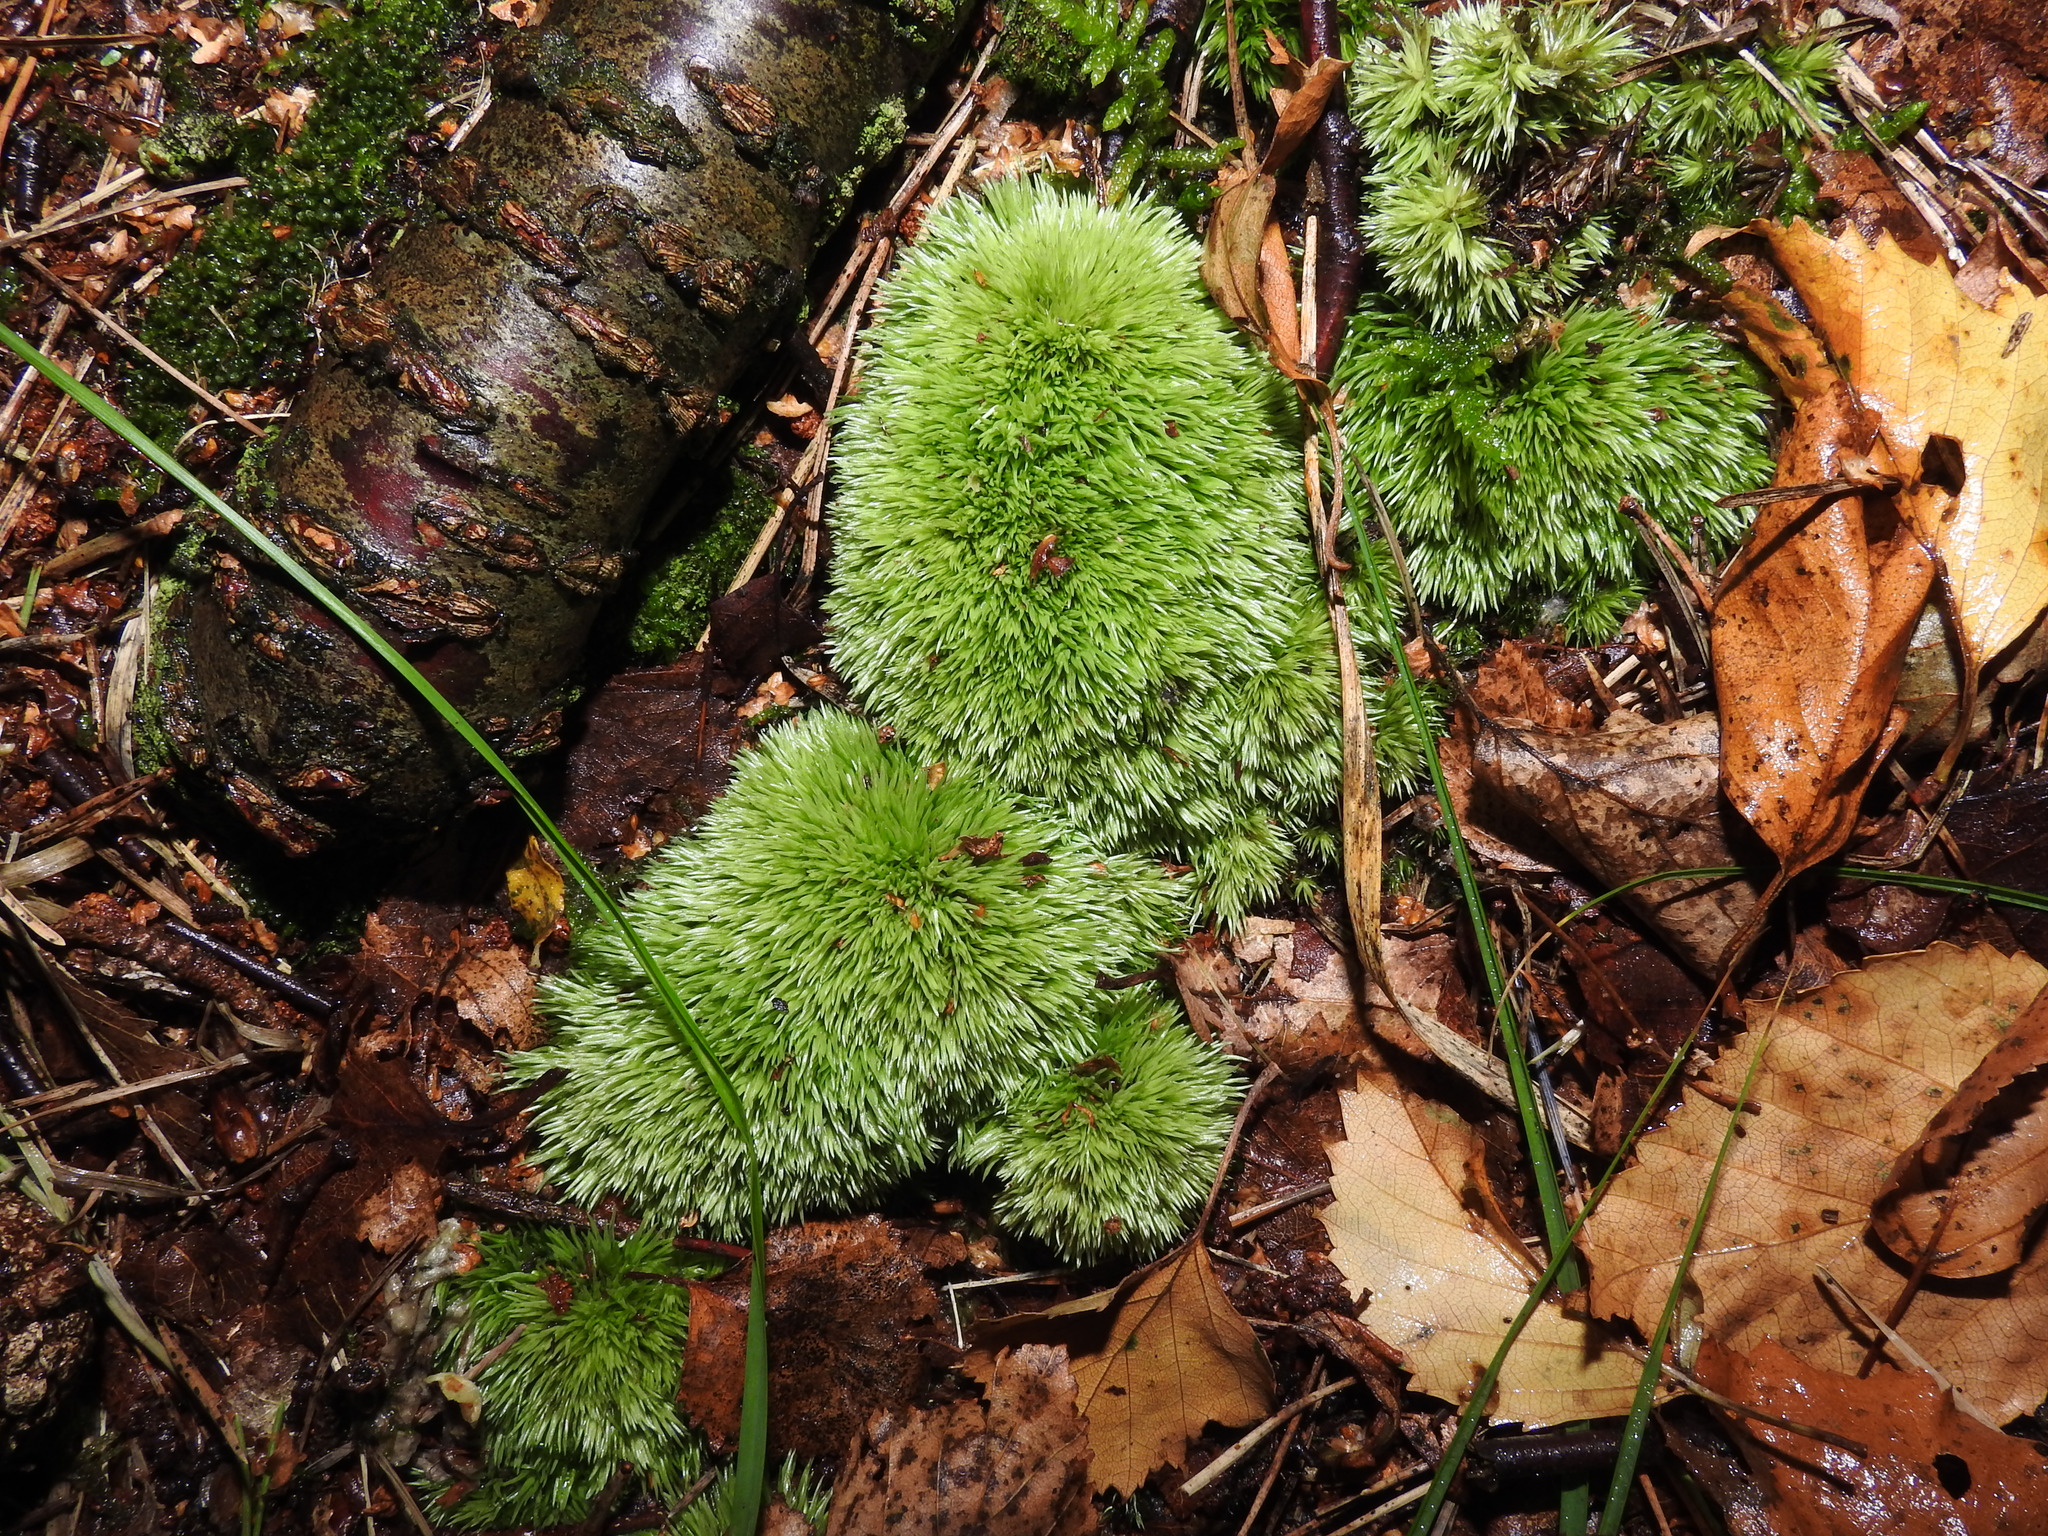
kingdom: Plantae
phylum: Bryophyta
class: Bryopsida
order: Dicranales
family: Leucobryaceae
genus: Leucobryum
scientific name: Leucobryum glaucum
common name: Large white-moss
